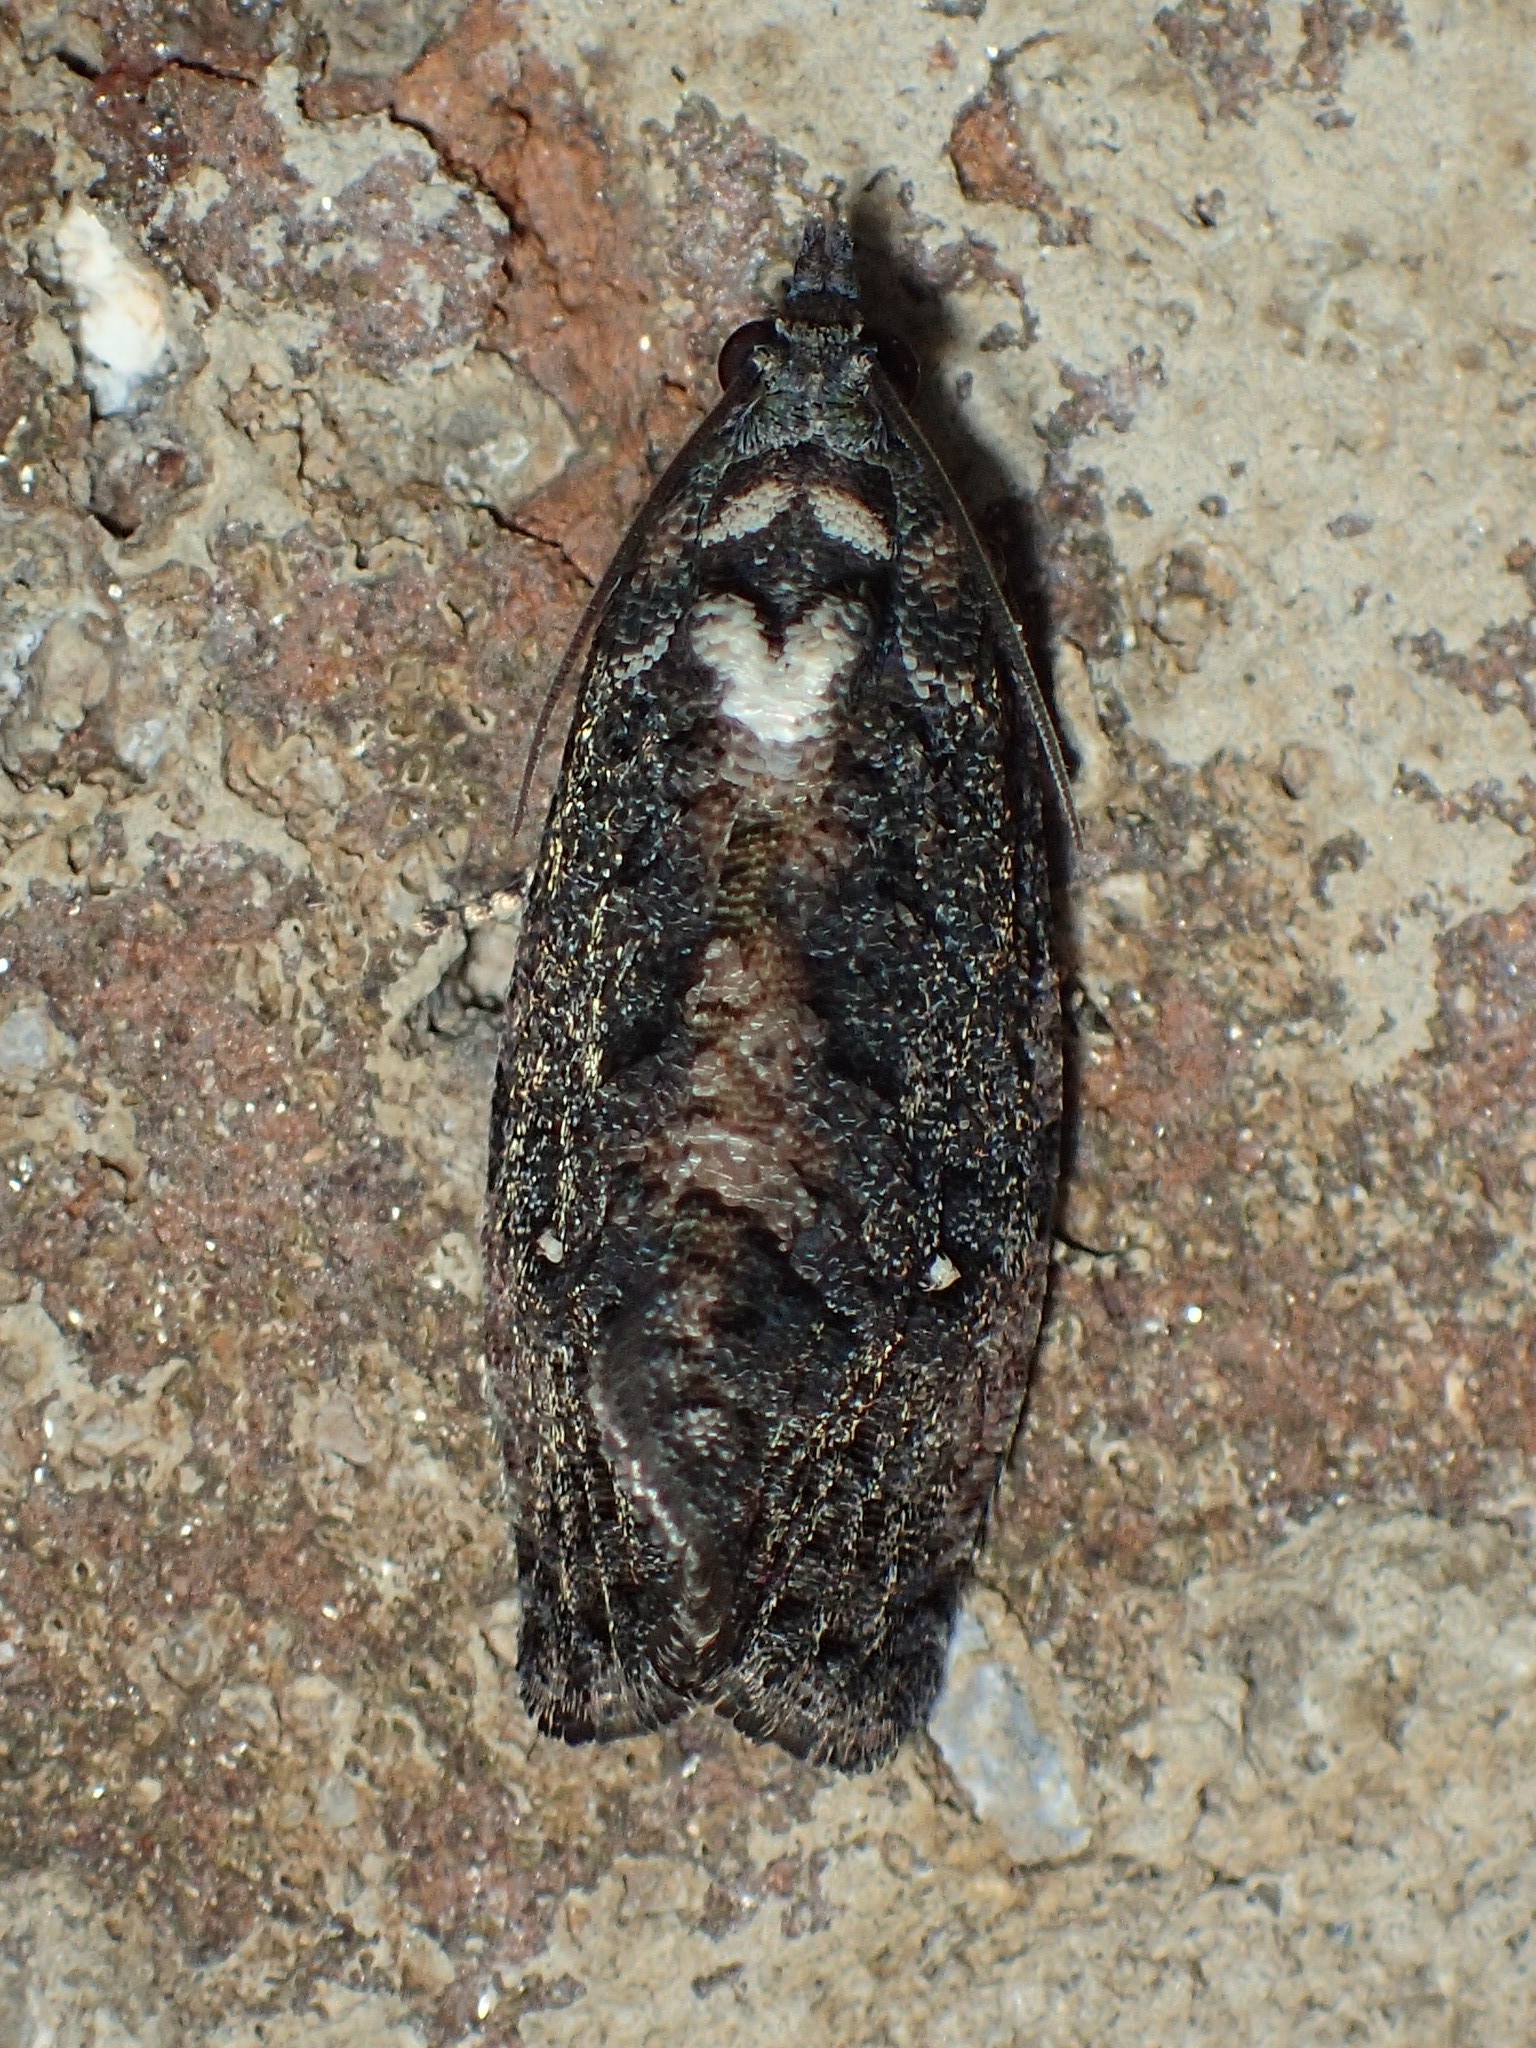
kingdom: Animalia
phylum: Arthropoda
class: Insecta
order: Lepidoptera
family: Tortricidae
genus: Gymnandrosoma
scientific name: Gymnandrosoma punctidiscanum
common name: Dotted ecdytolopha moth
